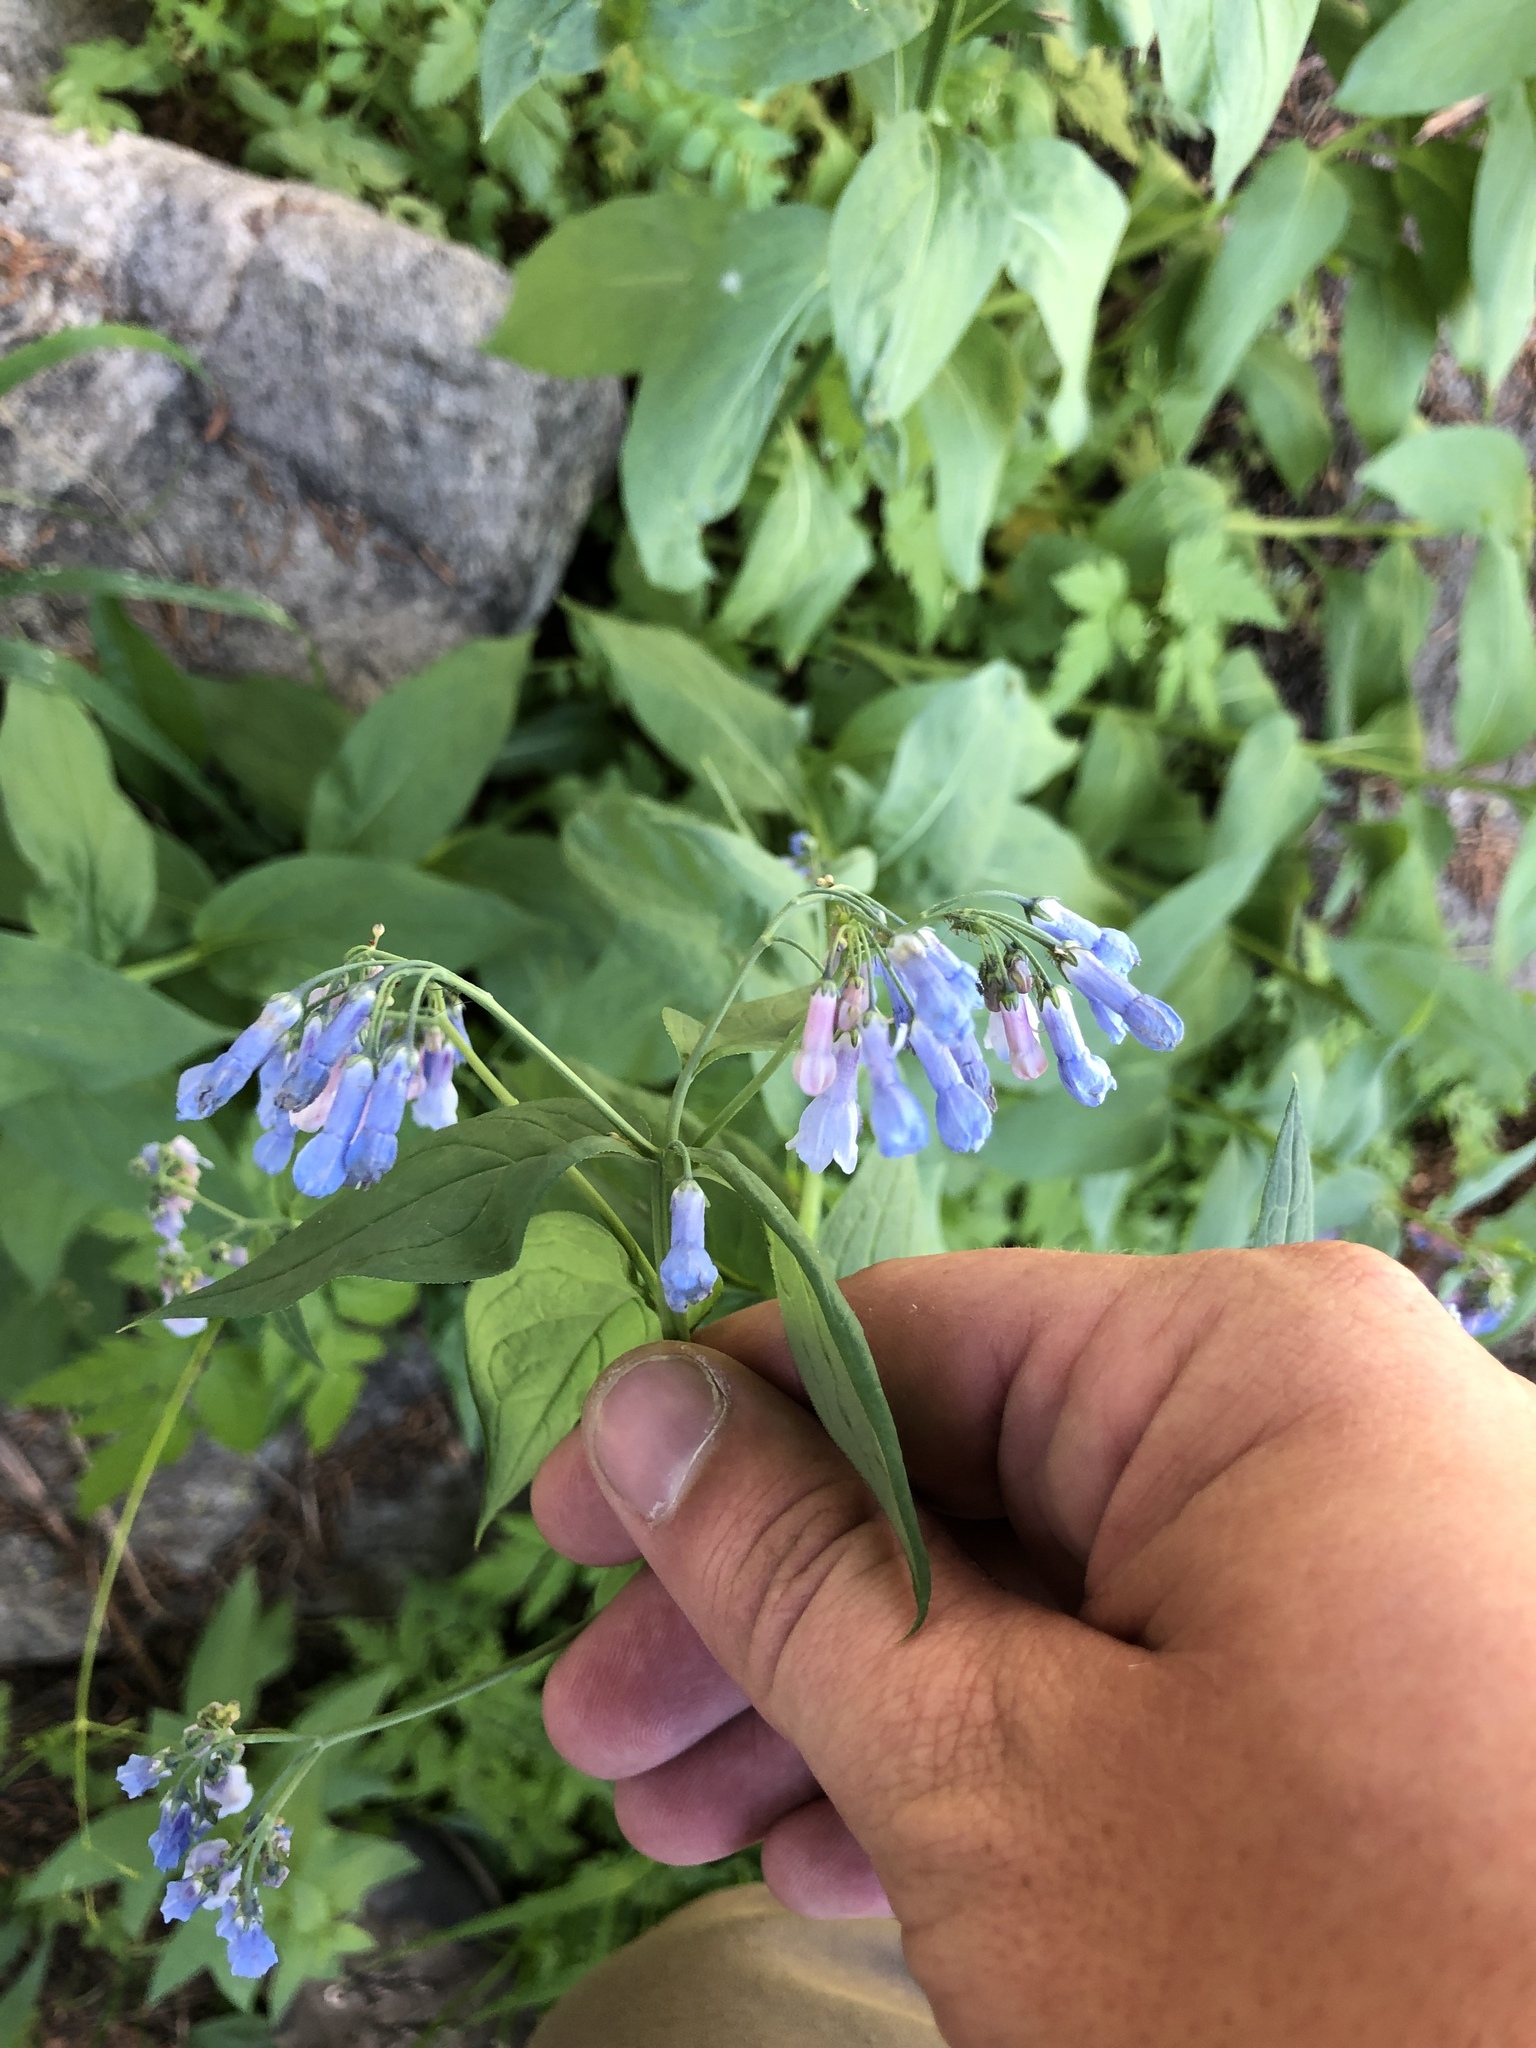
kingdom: Plantae
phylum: Tracheophyta
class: Magnoliopsida
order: Boraginales
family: Boraginaceae
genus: Mertensia
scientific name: Mertensia ciliata
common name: Tall chiming-bells
